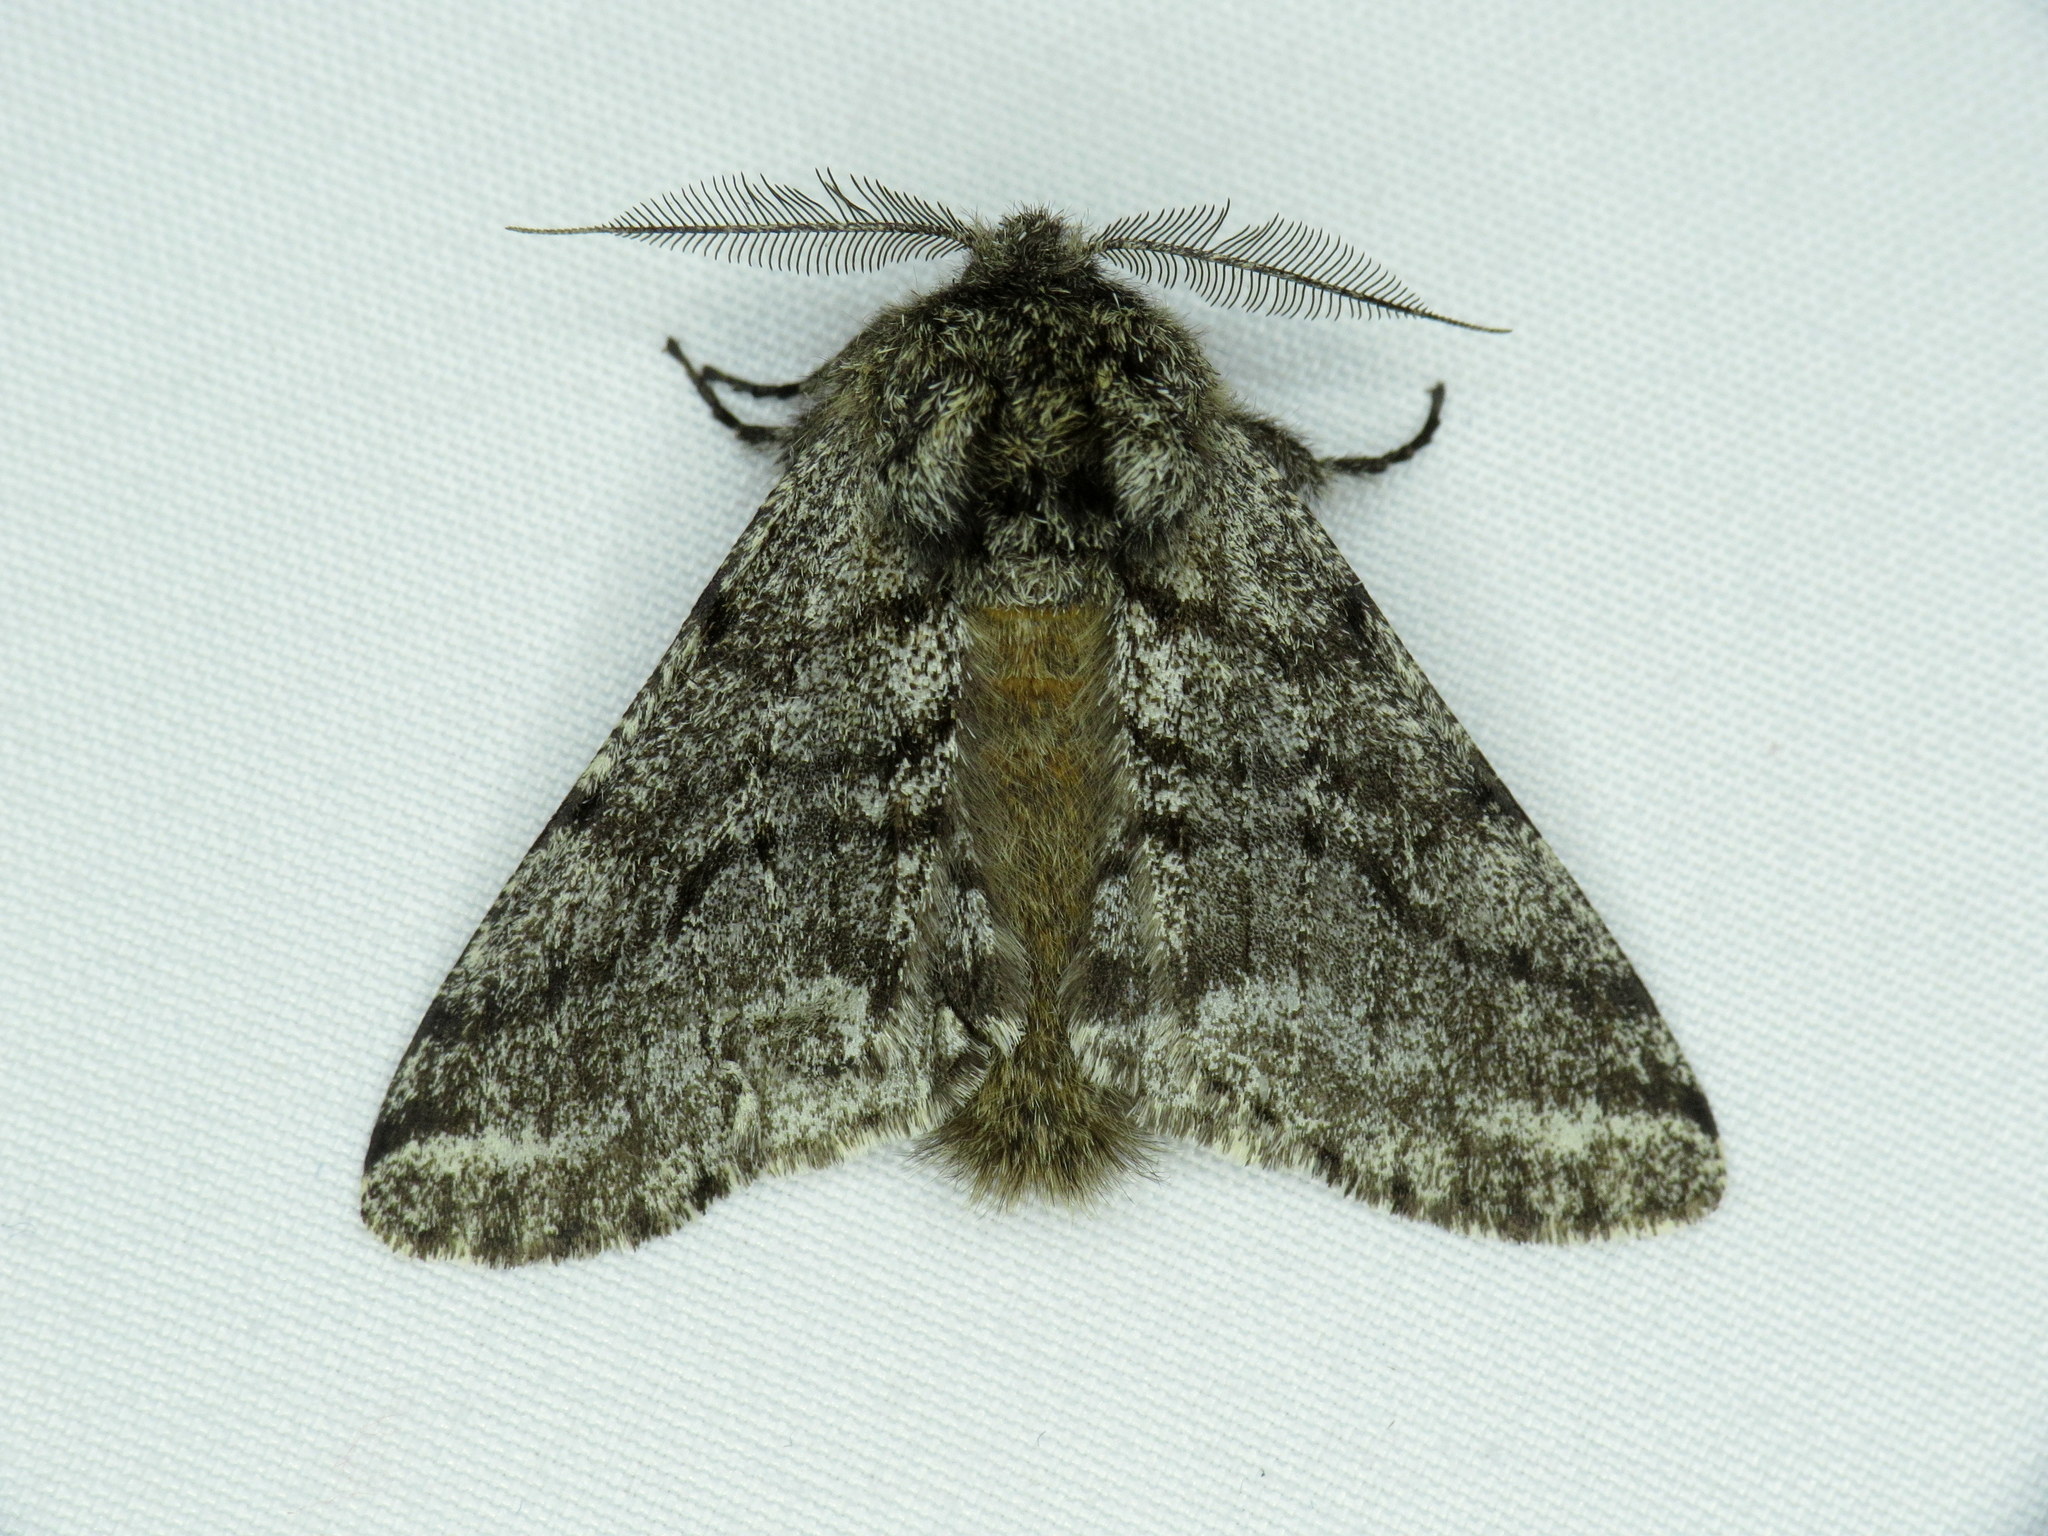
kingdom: Animalia
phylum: Arthropoda
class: Insecta
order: Lepidoptera
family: Geometridae
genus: Lycia
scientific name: Lycia ursaria
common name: Stout spanworm
